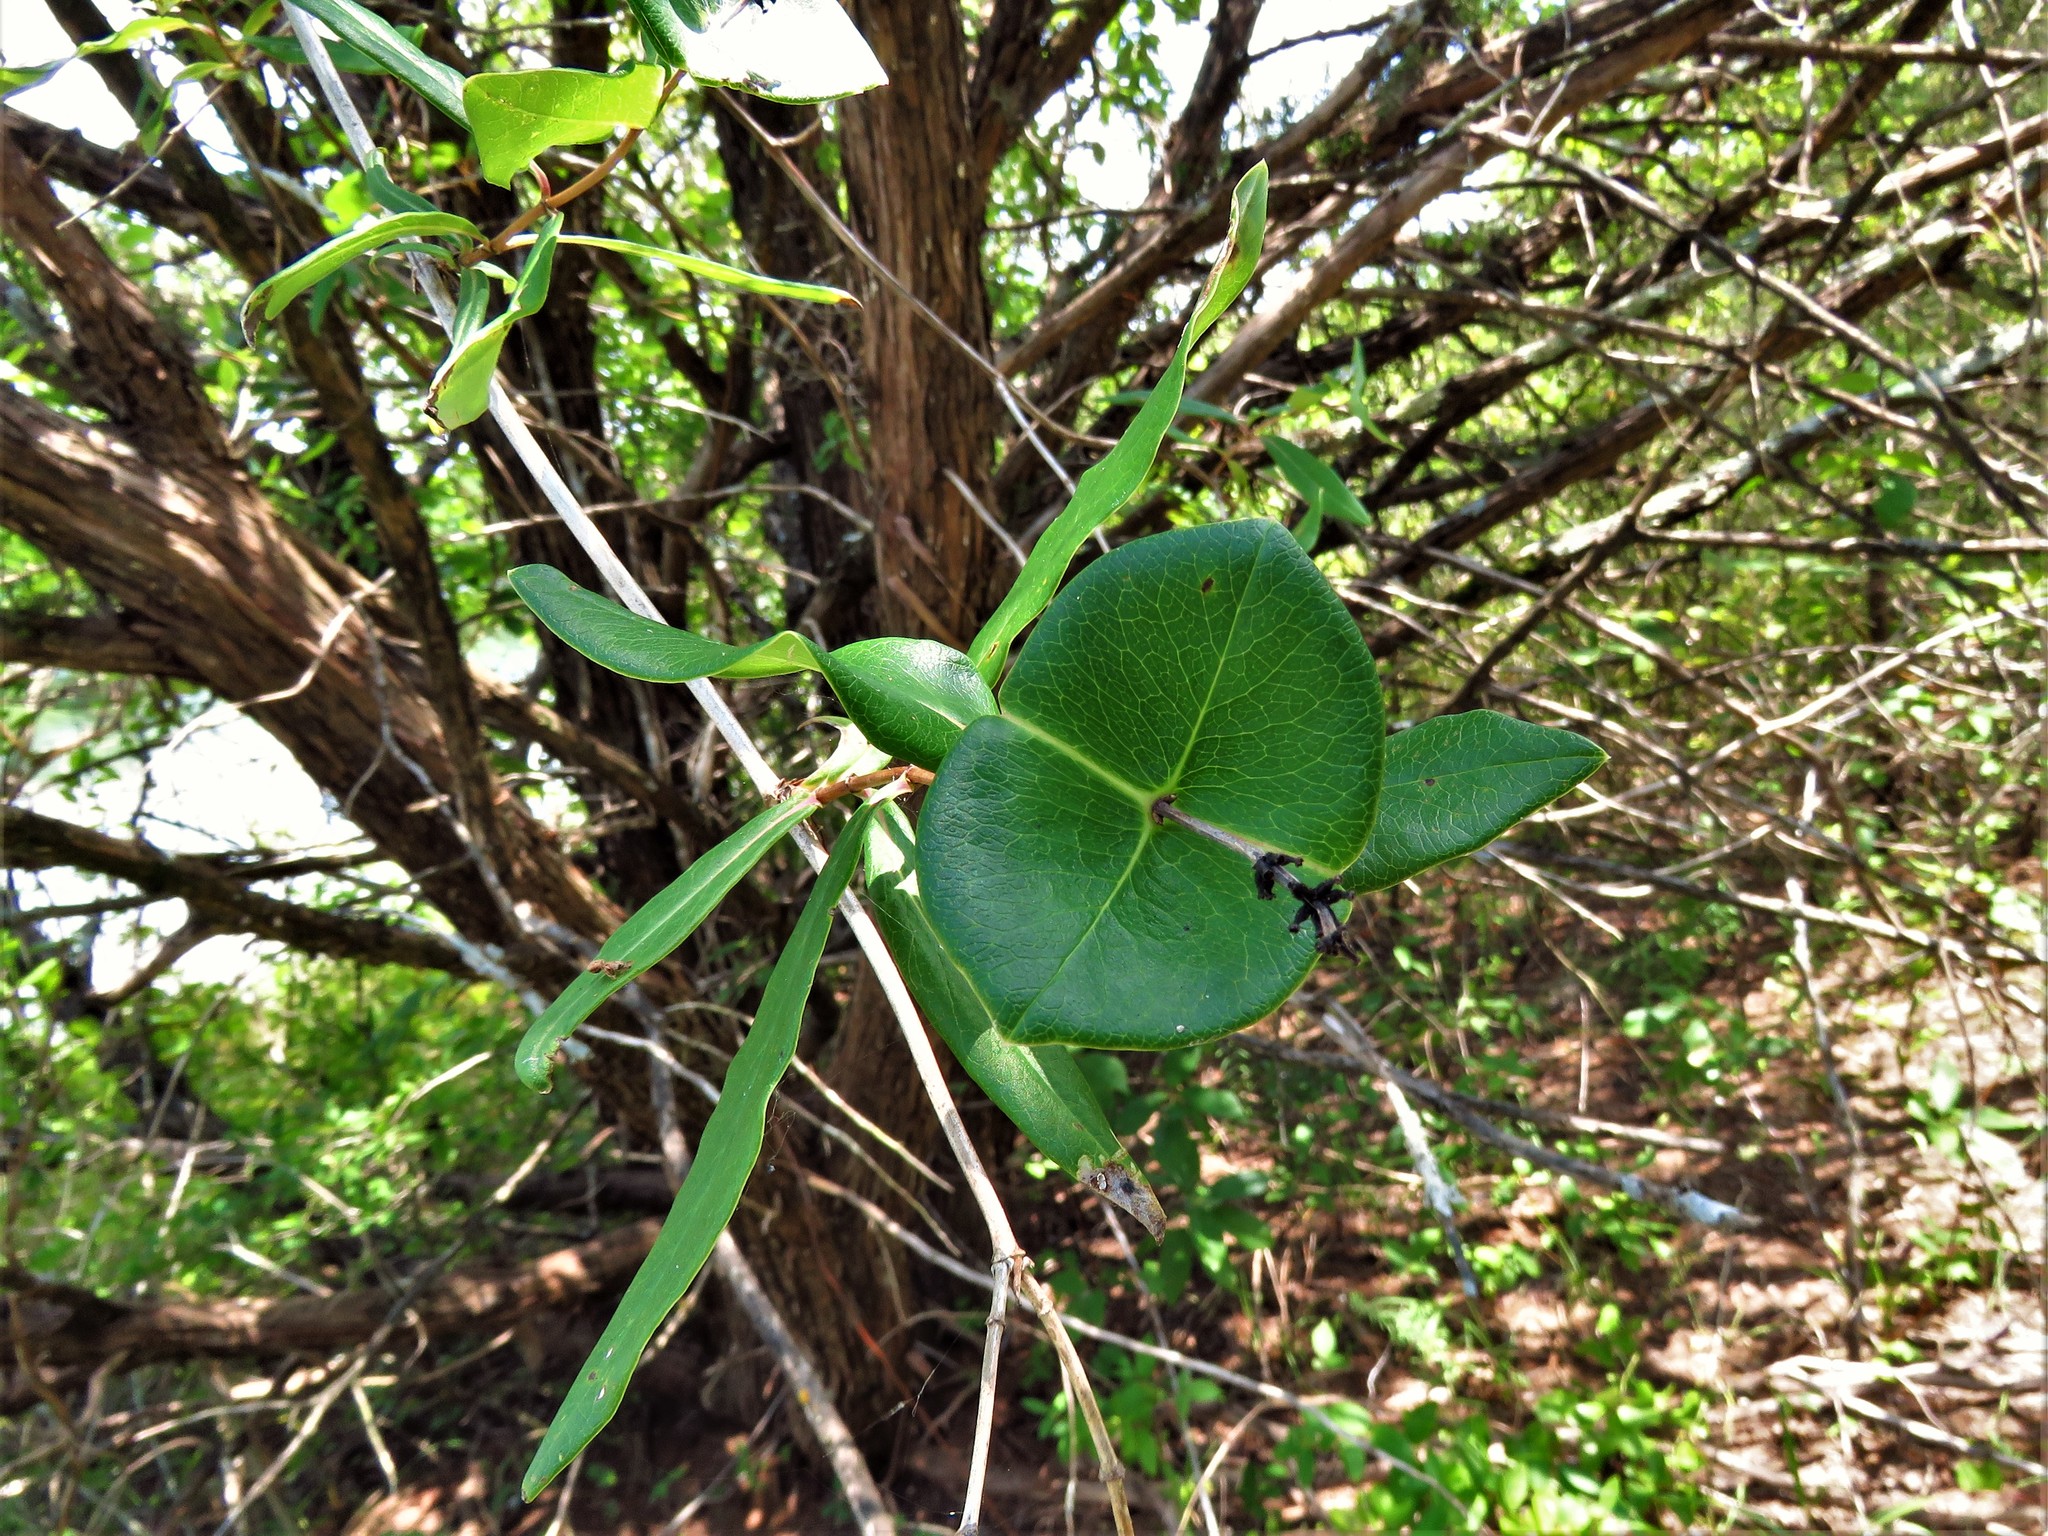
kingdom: Plantae
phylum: Tracheophyta
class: Magnoliopsida
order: Dipsacales
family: Caprifoliaceae
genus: Lonicera
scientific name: Lonicera sempervirens
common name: Coral honeysuckle
